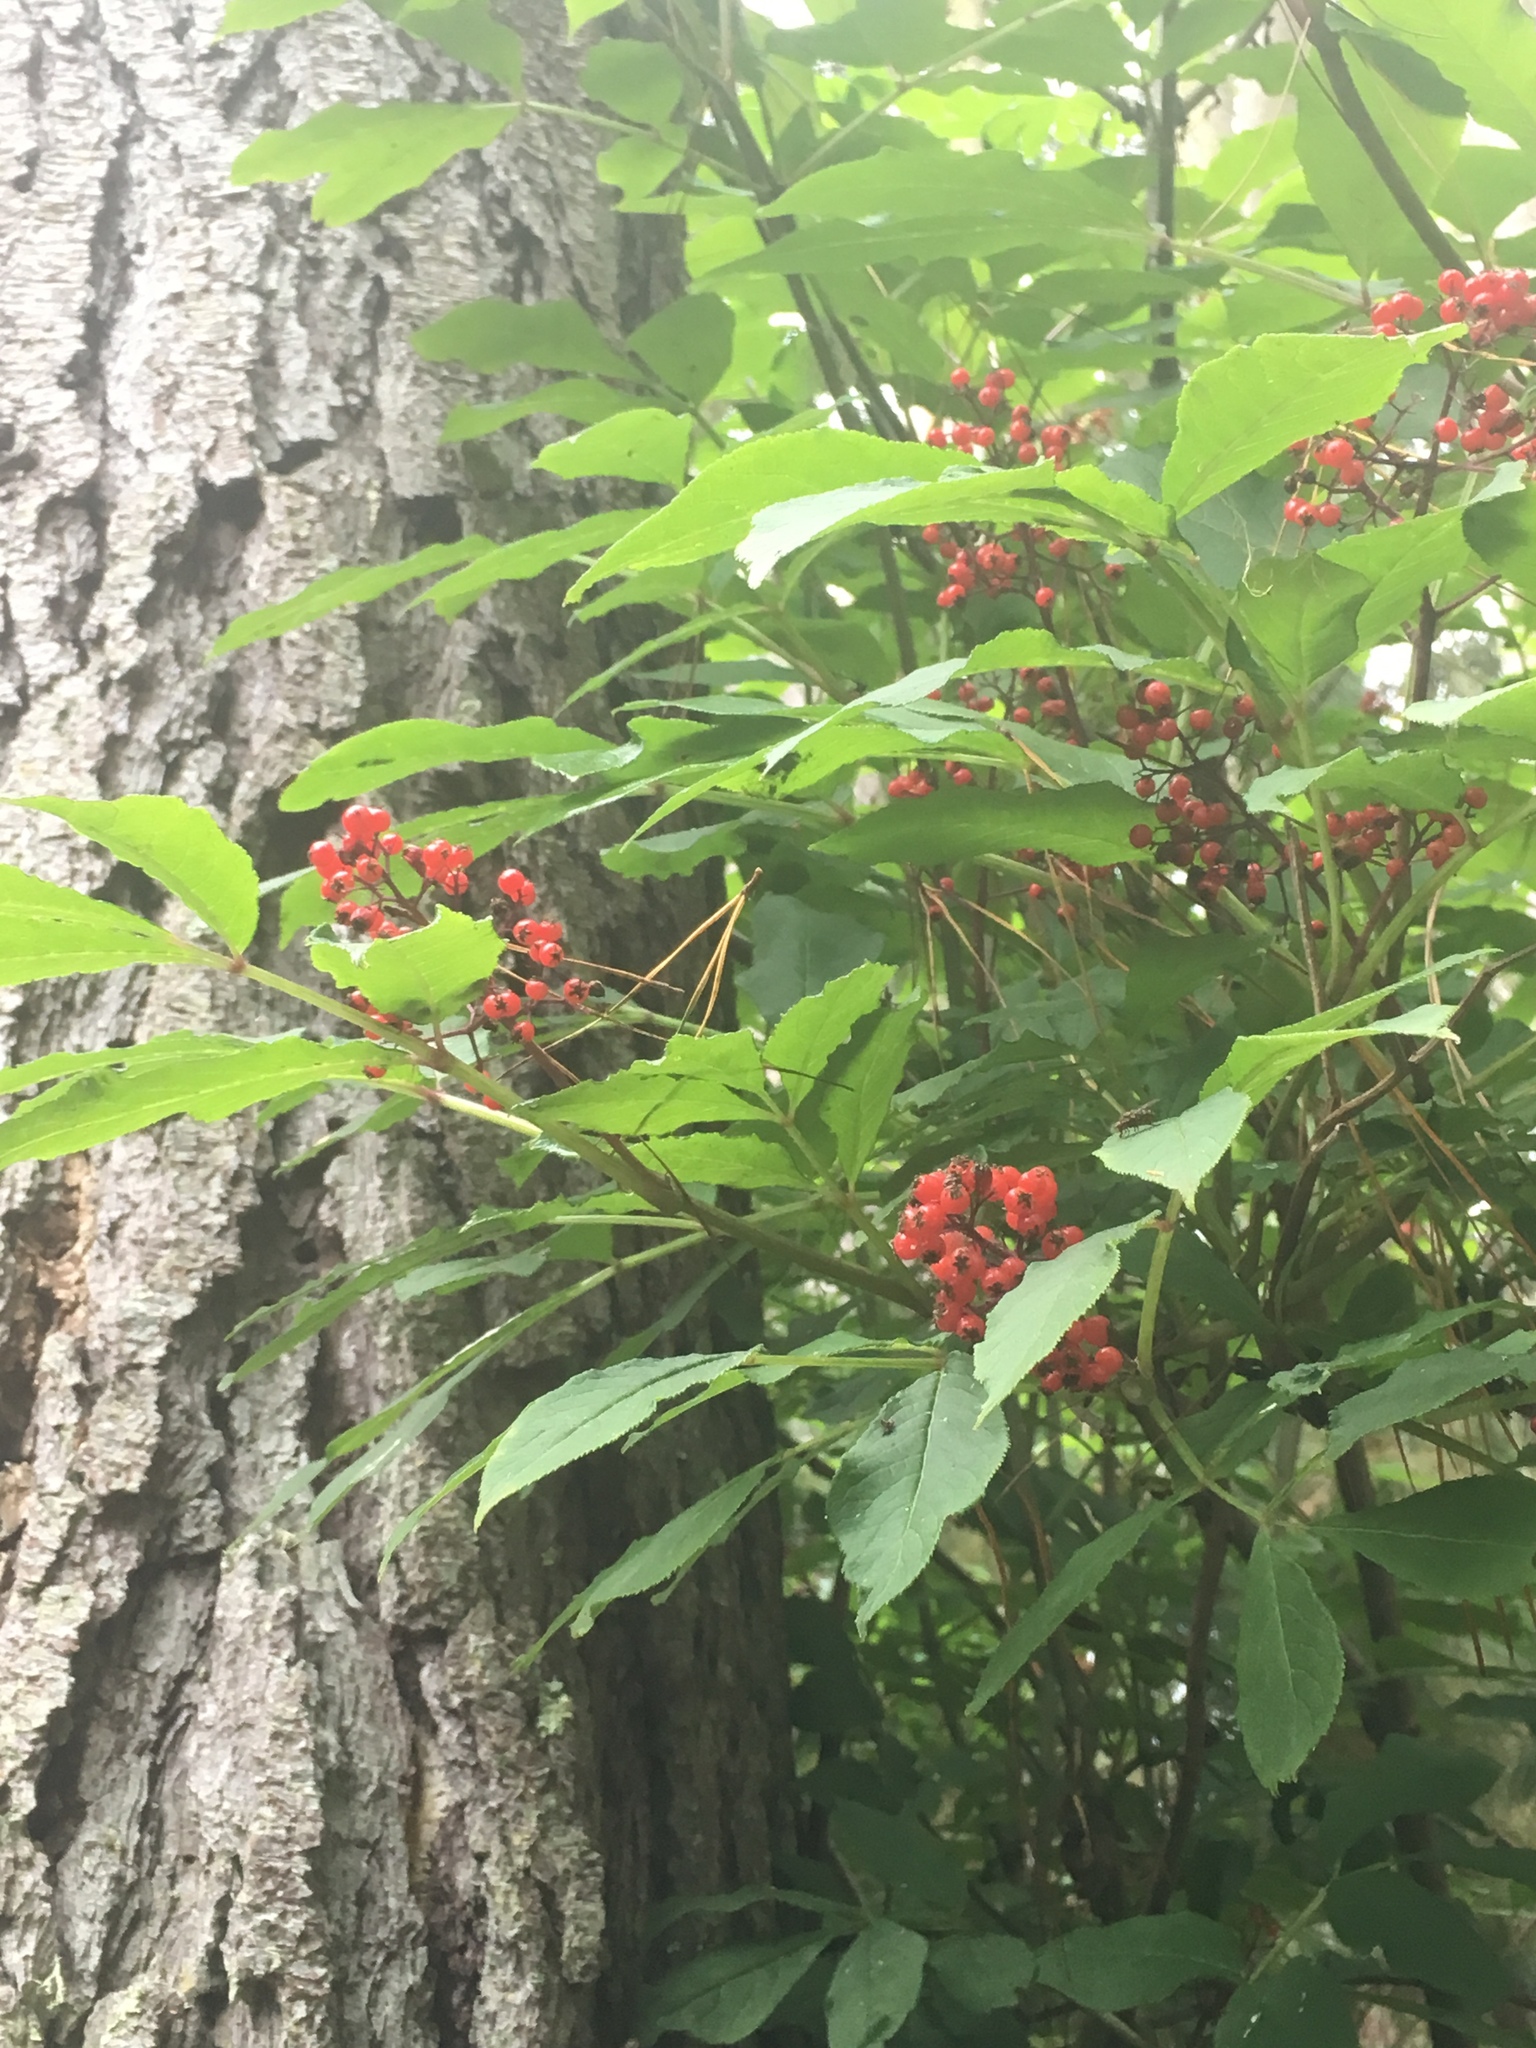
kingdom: Plantae
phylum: Tracheophyta
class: Magnoliopsida
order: Dipsacales
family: Viburnaceae
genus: Sambucus
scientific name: Sambucus racemosa
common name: Red-berried elder
